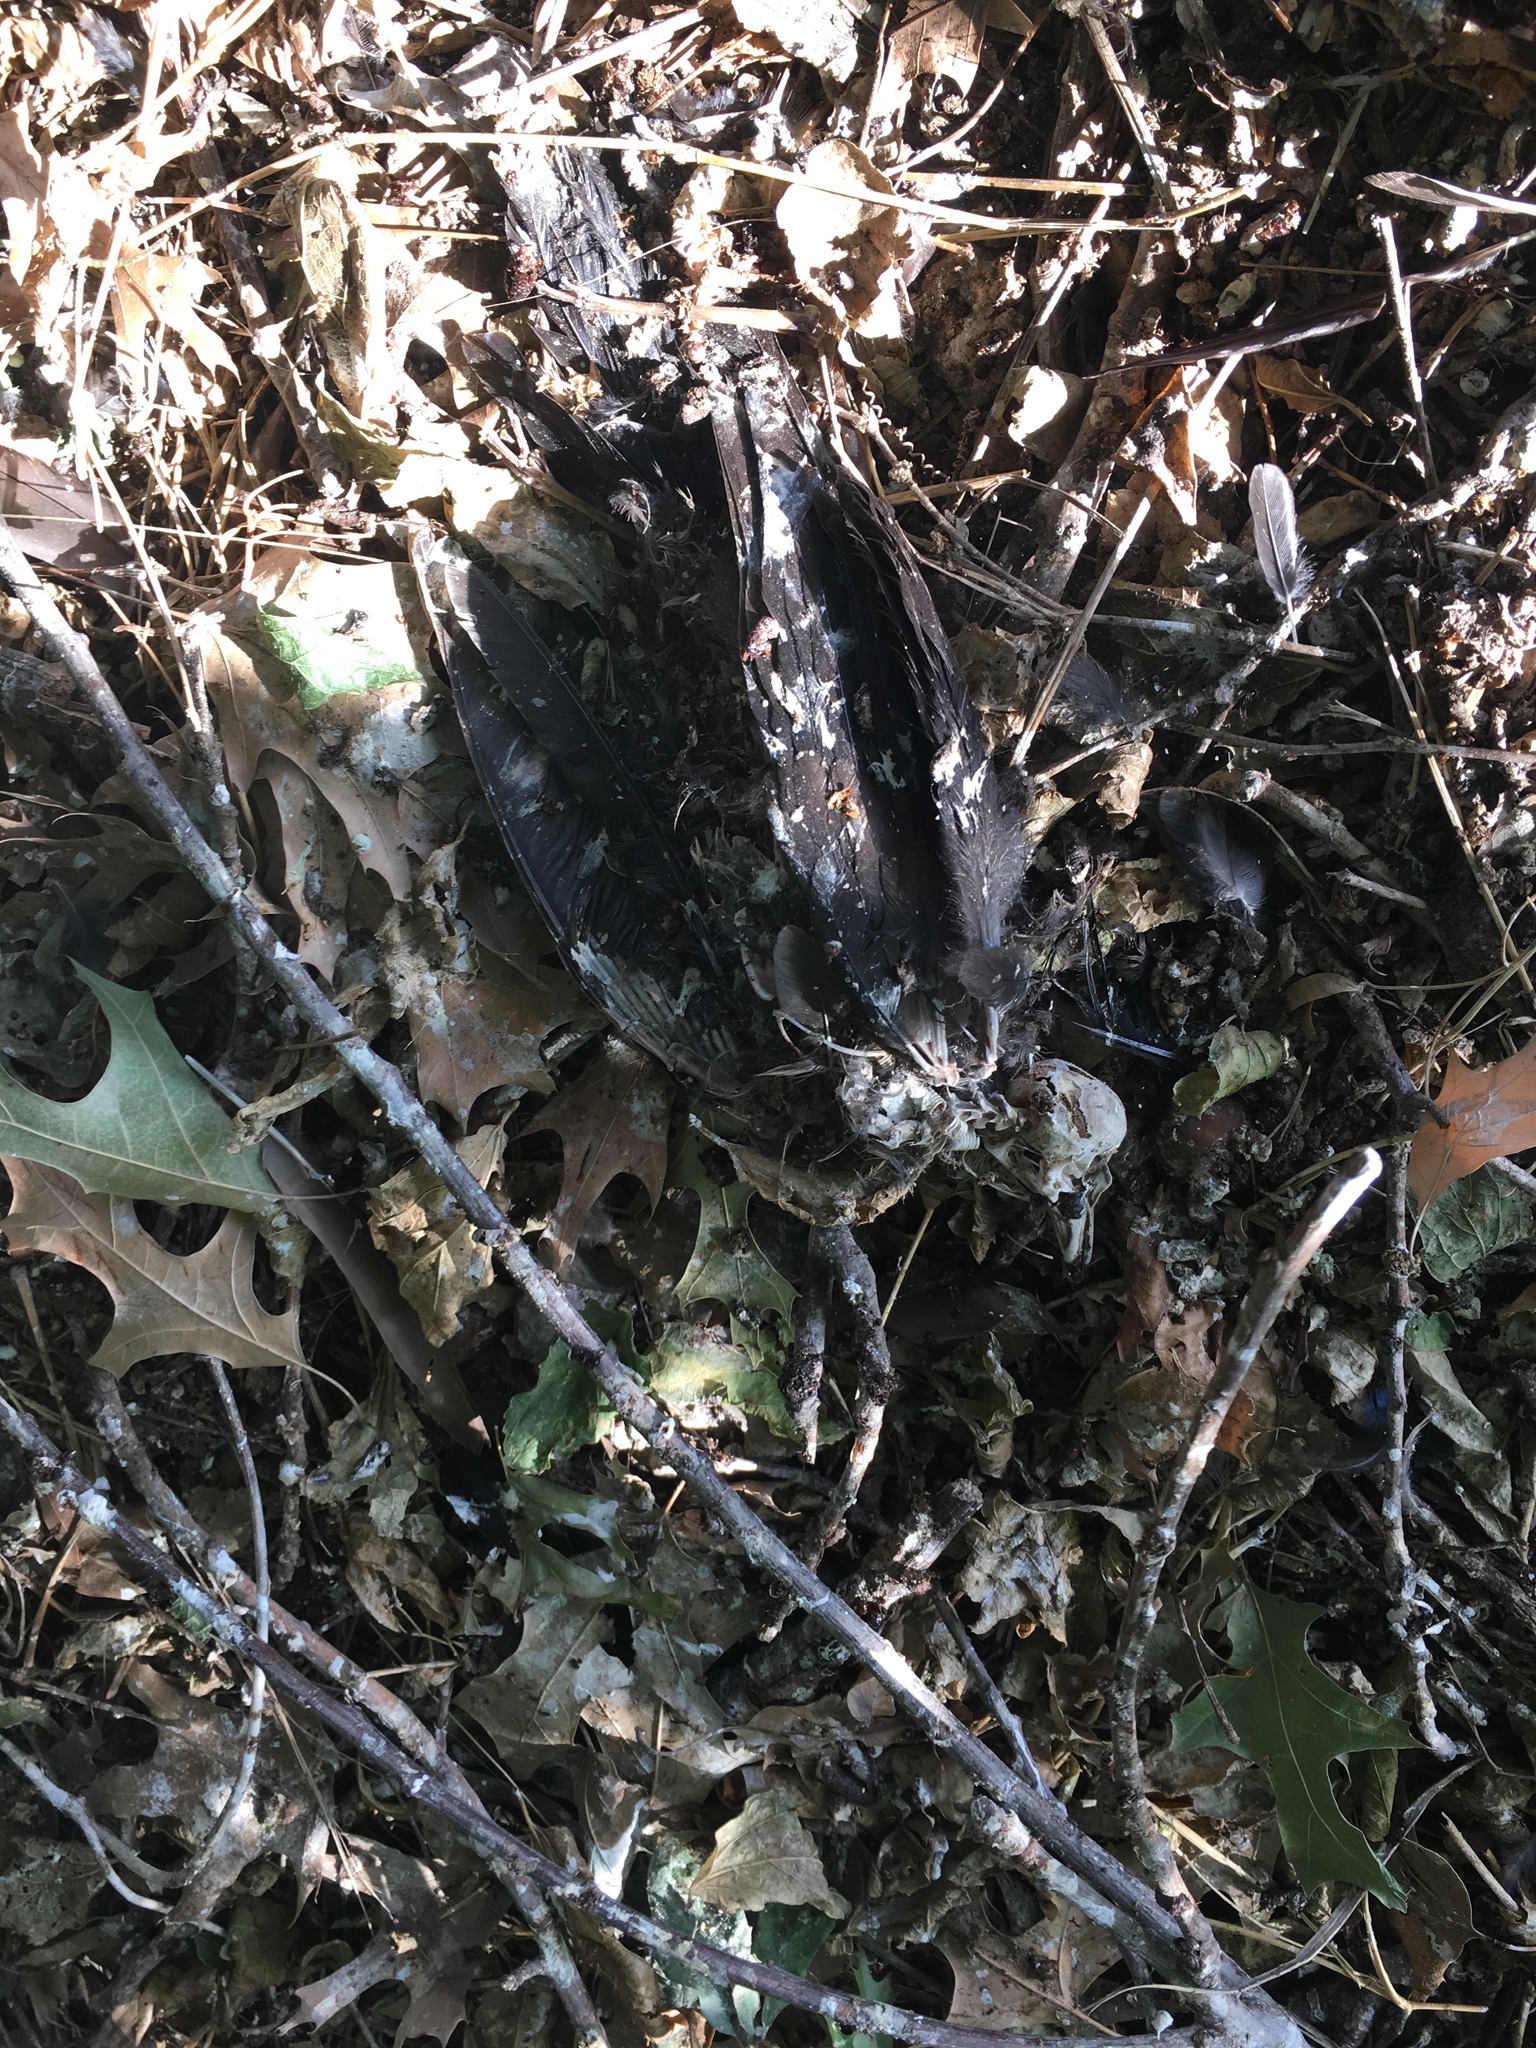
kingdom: Animalia
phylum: Chordata
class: Aves
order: Passeriformes
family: Icteridae
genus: Quiscalus
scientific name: Quiscalus mexicanus
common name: Great-tailed grackle
